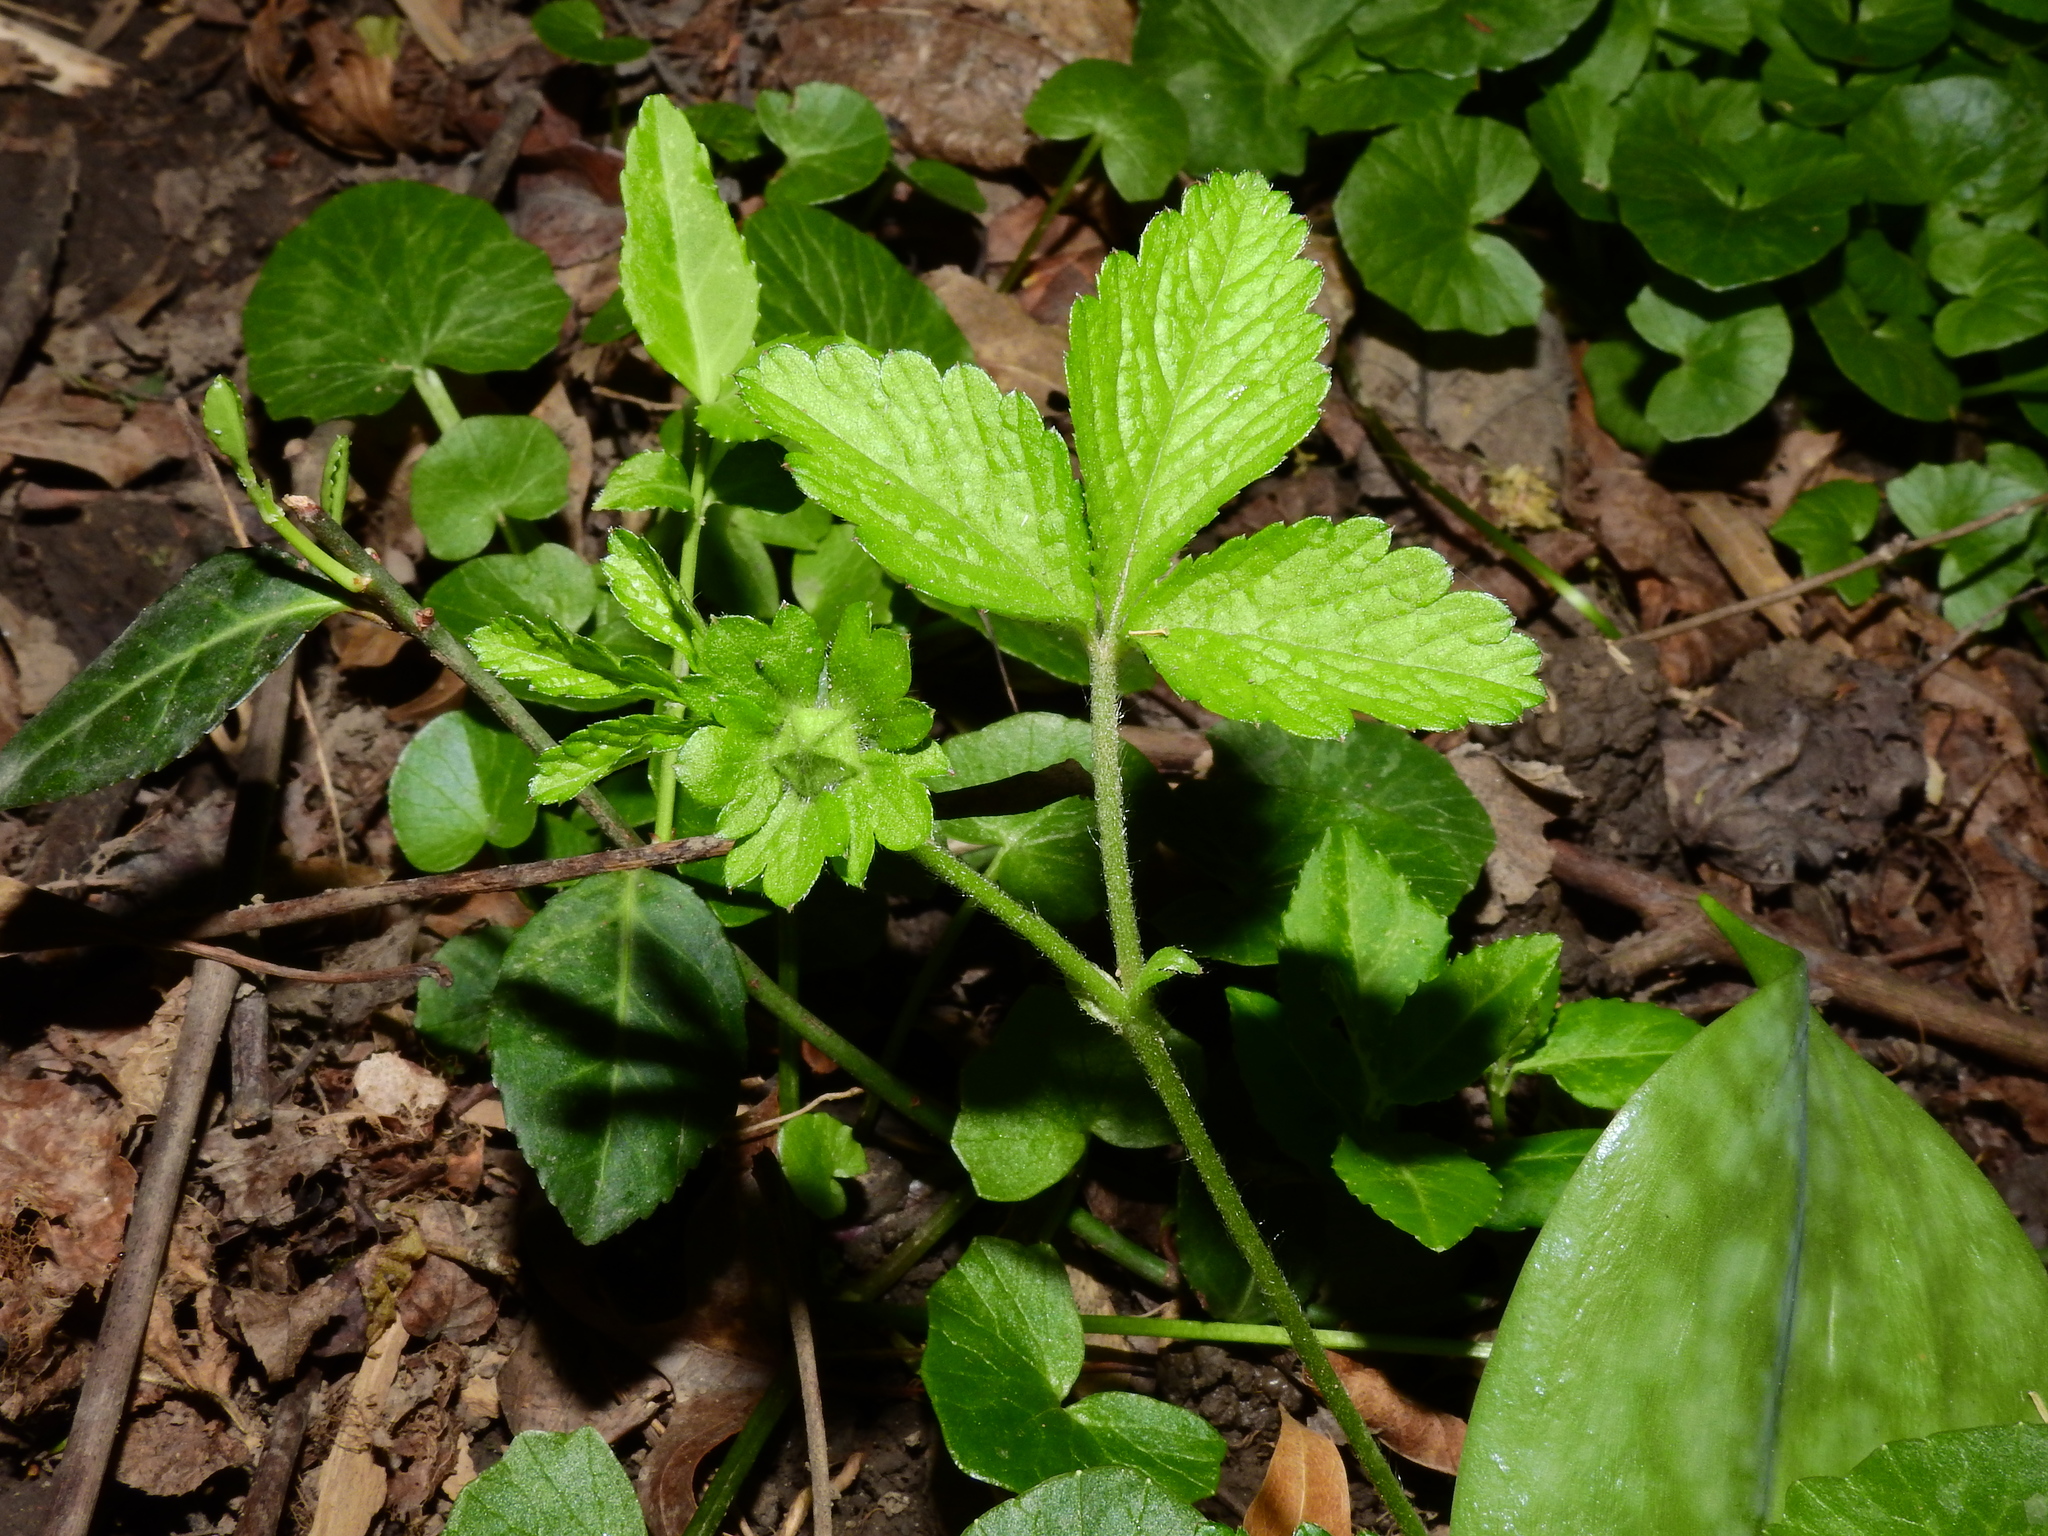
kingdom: Plantae
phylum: Tracheophyta
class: Magnoliopsida
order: Rosales
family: Rosaceae
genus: Potentilla
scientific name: Potentilla indica
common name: Yellow-flowered strawberry
